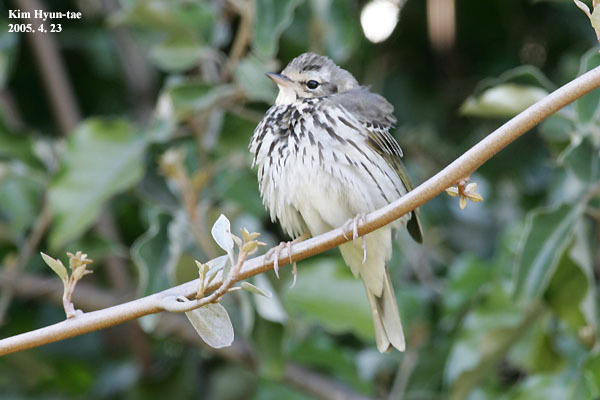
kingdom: Animalia
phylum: Chordata
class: Aves
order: Passeriformes
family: Motacillidae
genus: Anthus
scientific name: Anthus hodgsoni
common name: Olive-backed pipit
